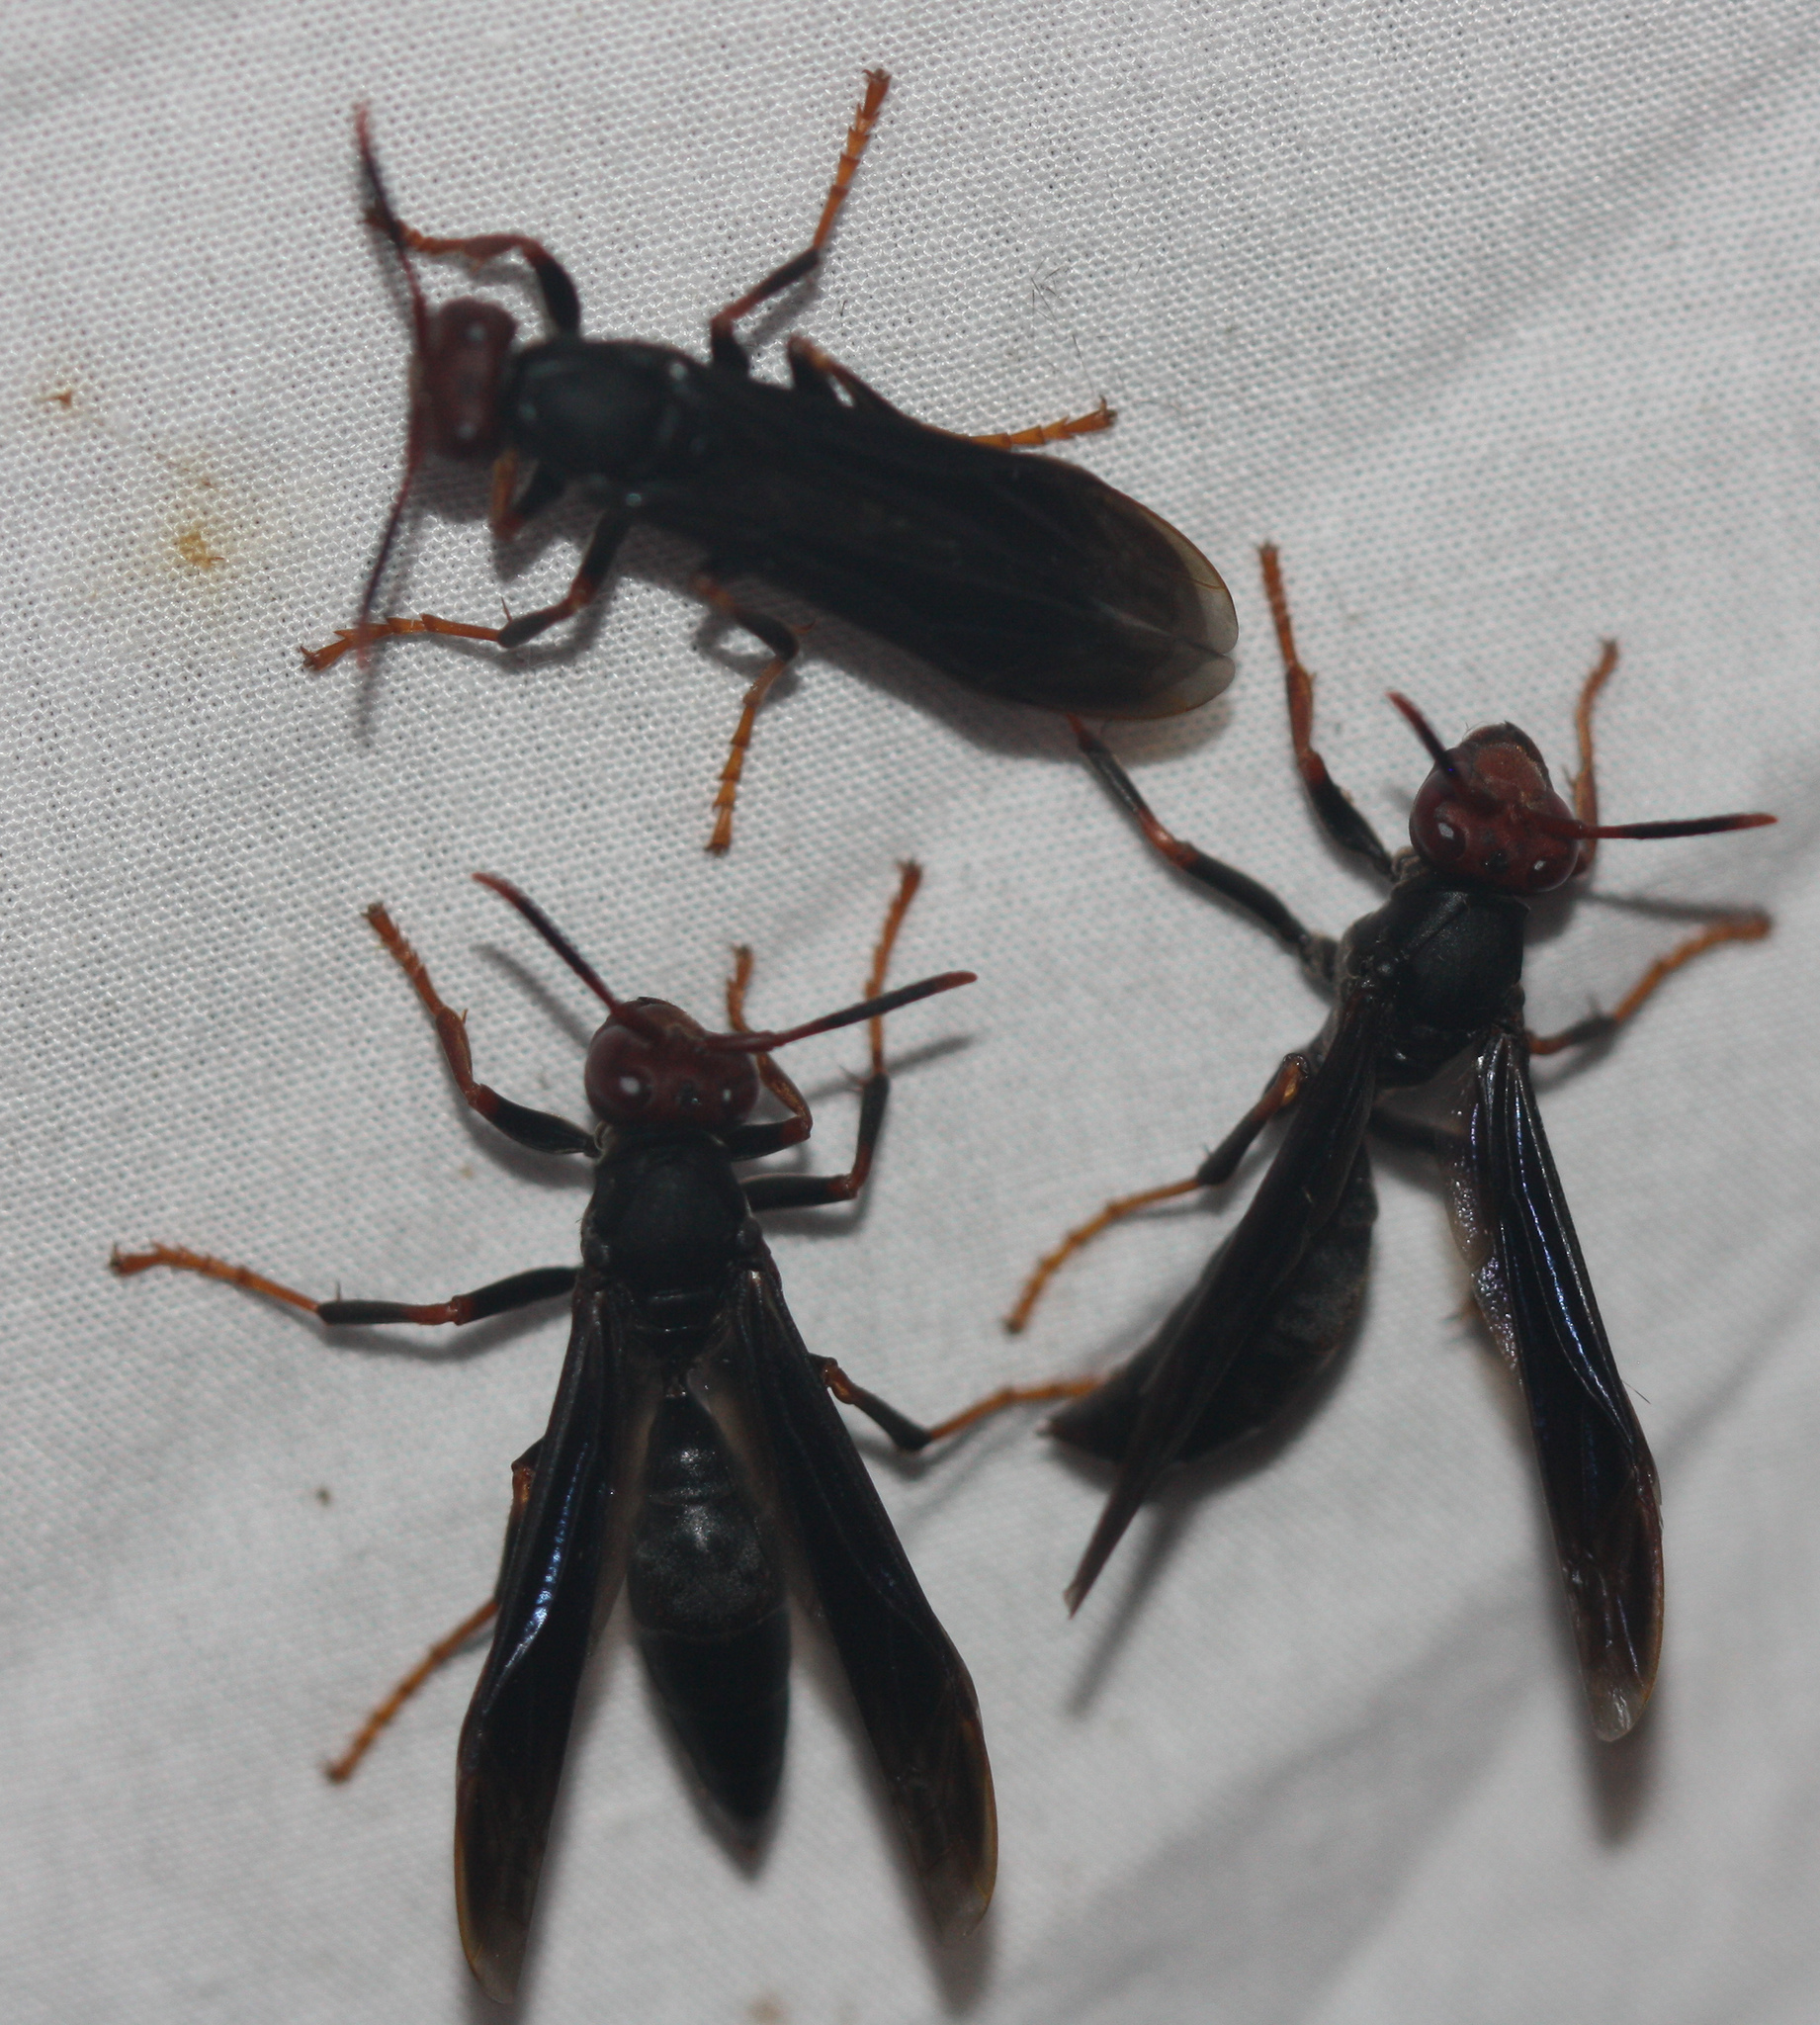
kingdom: Animalia
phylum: Arthropoda
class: Insecta
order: Hymenoptera
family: Eumenidae
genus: Polistes
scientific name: Polistes erythrocephalus
